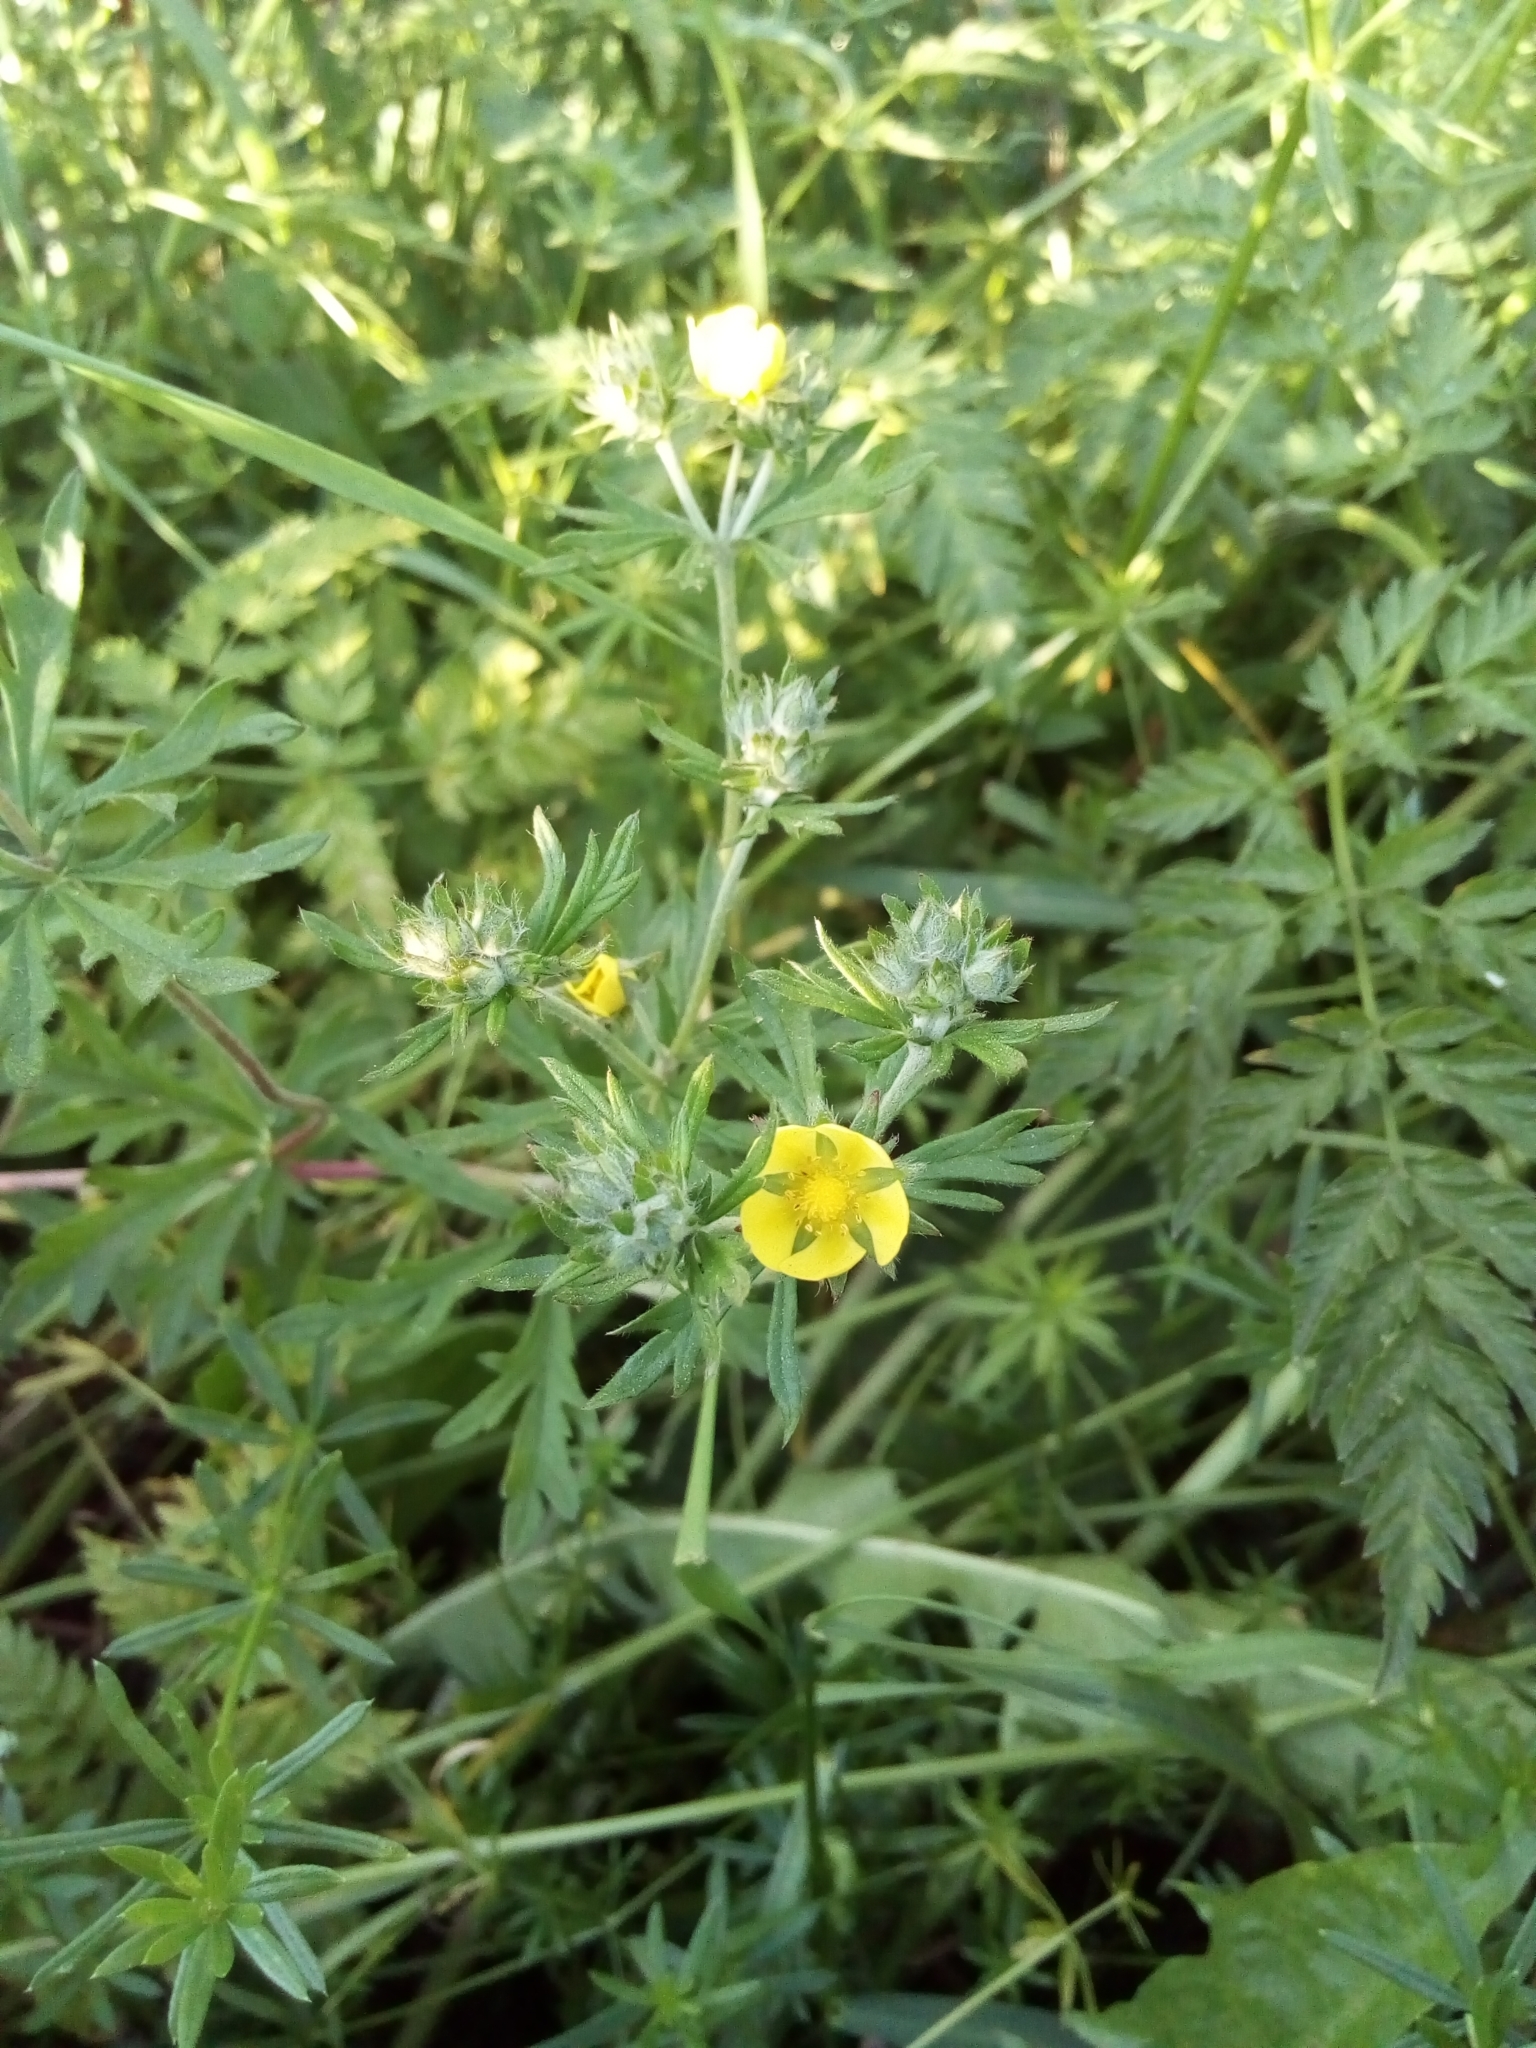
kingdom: Plantae
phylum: Tracheophyta
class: Magnoliopsida
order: Rosales
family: Rosaceae
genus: Potentilla
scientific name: Potentilla argentea
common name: Hoary cinquefoil
